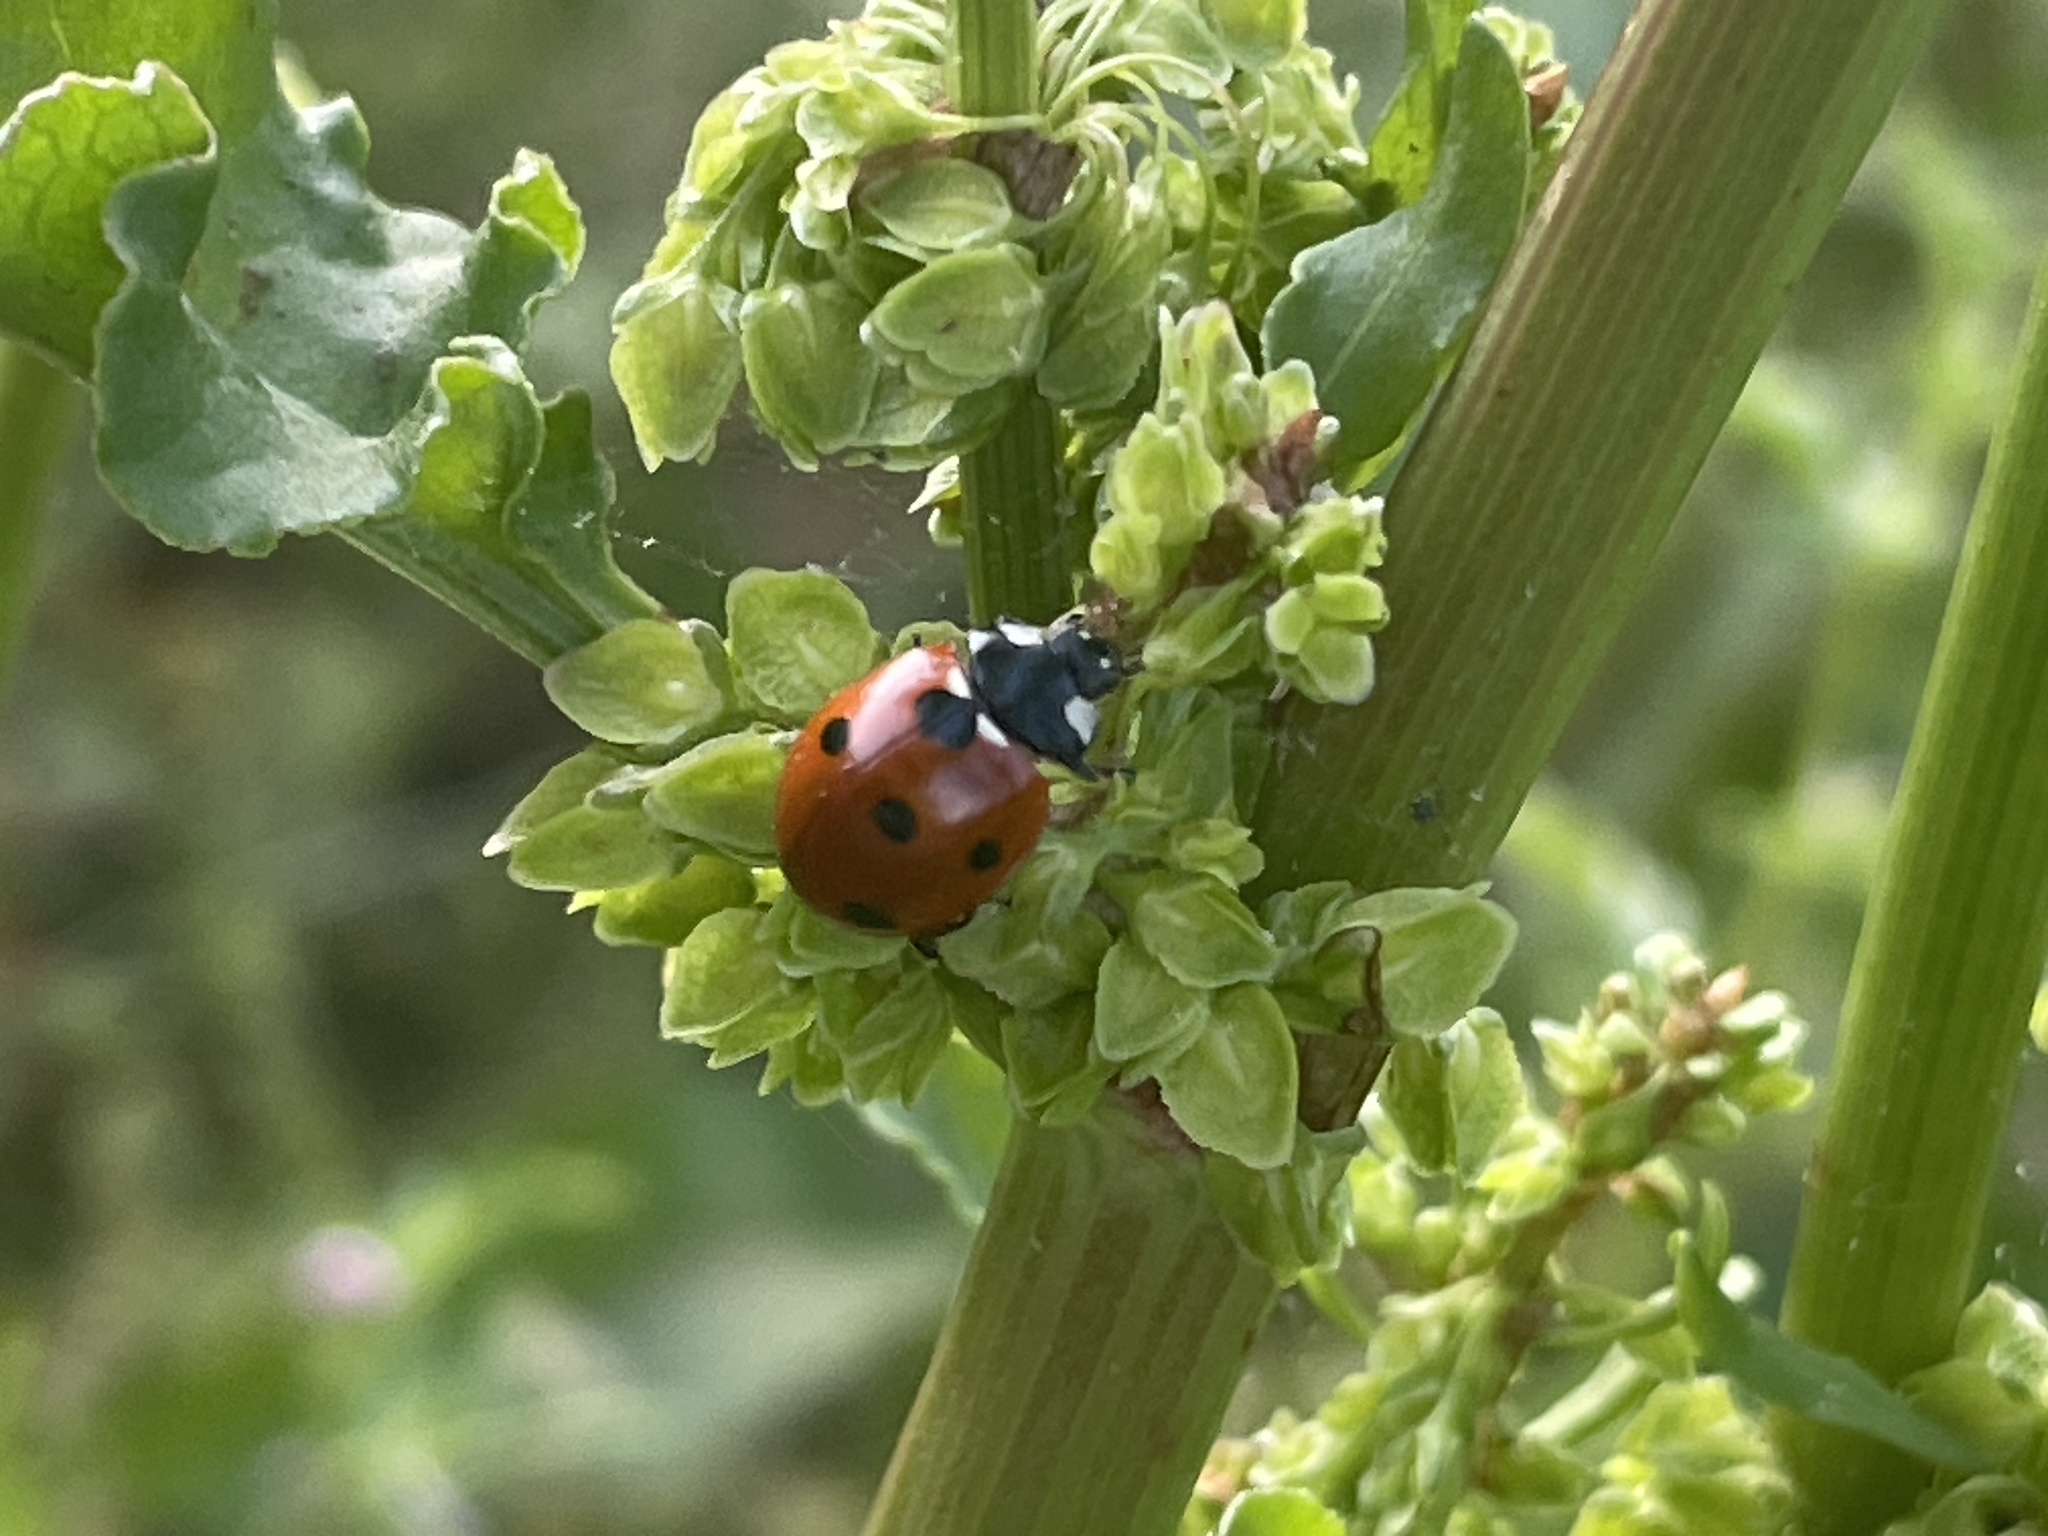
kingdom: Animalia
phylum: Arthropoda
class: Insecta
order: Coleoptera
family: Coccinellidae
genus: Coccinella
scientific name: Coccinella septempunctata
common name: Sevenspotted lady beetle
